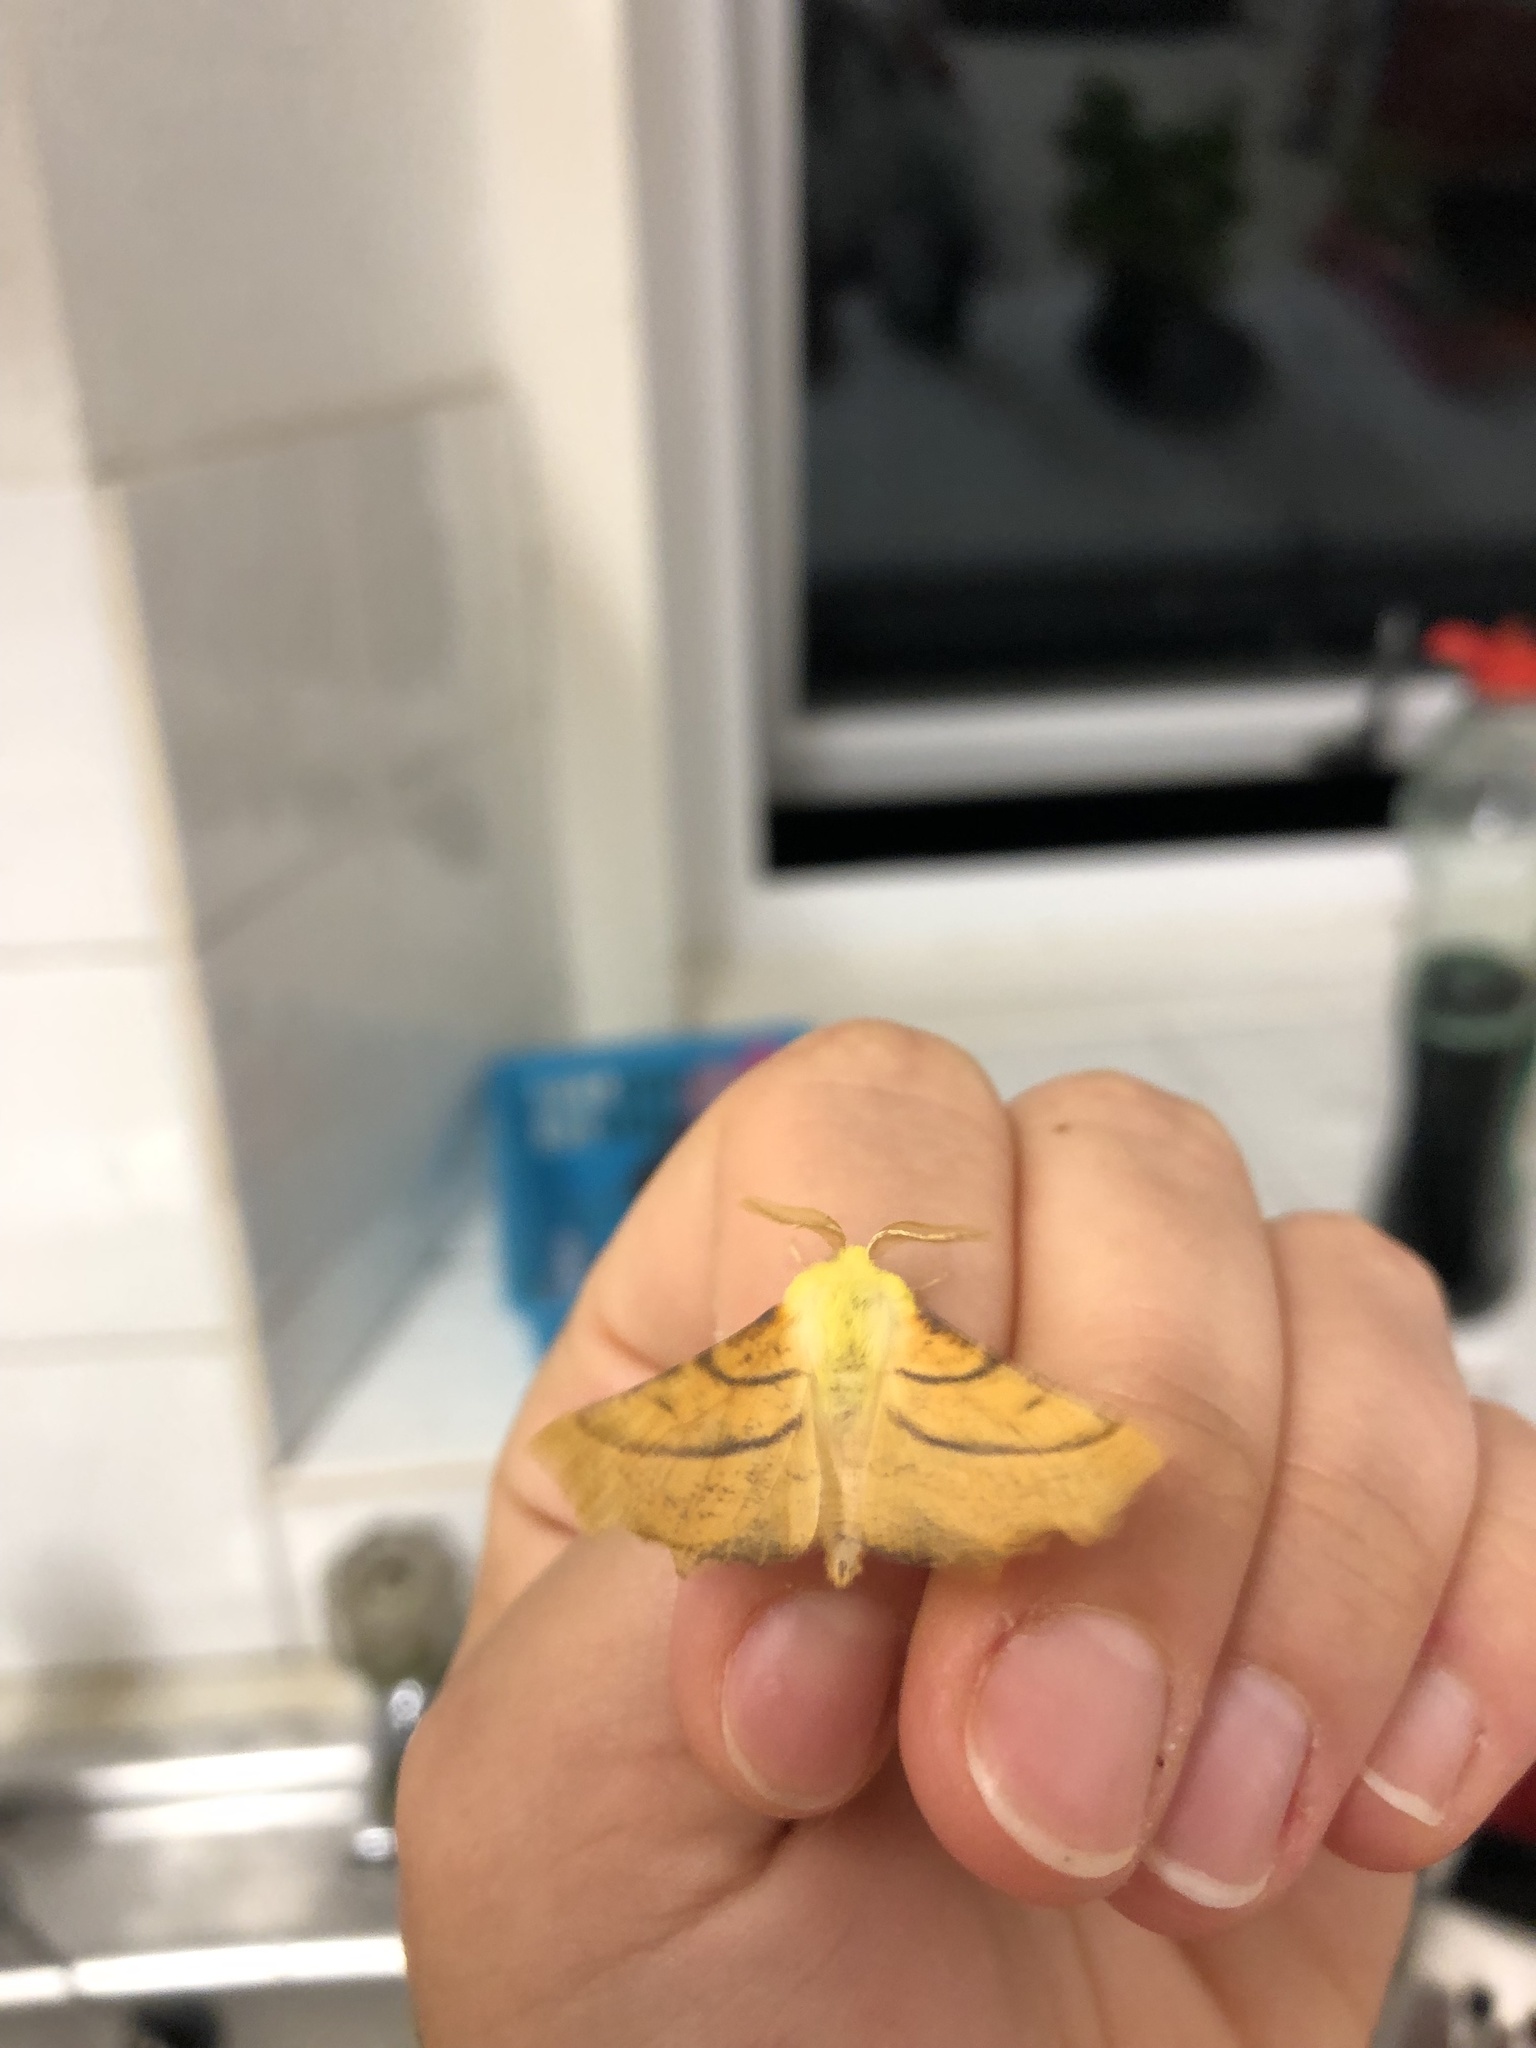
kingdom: Animalia
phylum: Arthropoda
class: Insecta
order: Lepidoptera
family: Geometridae
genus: Ennomos
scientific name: Ennomos alniaria
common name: Canary-shouldered thorn
